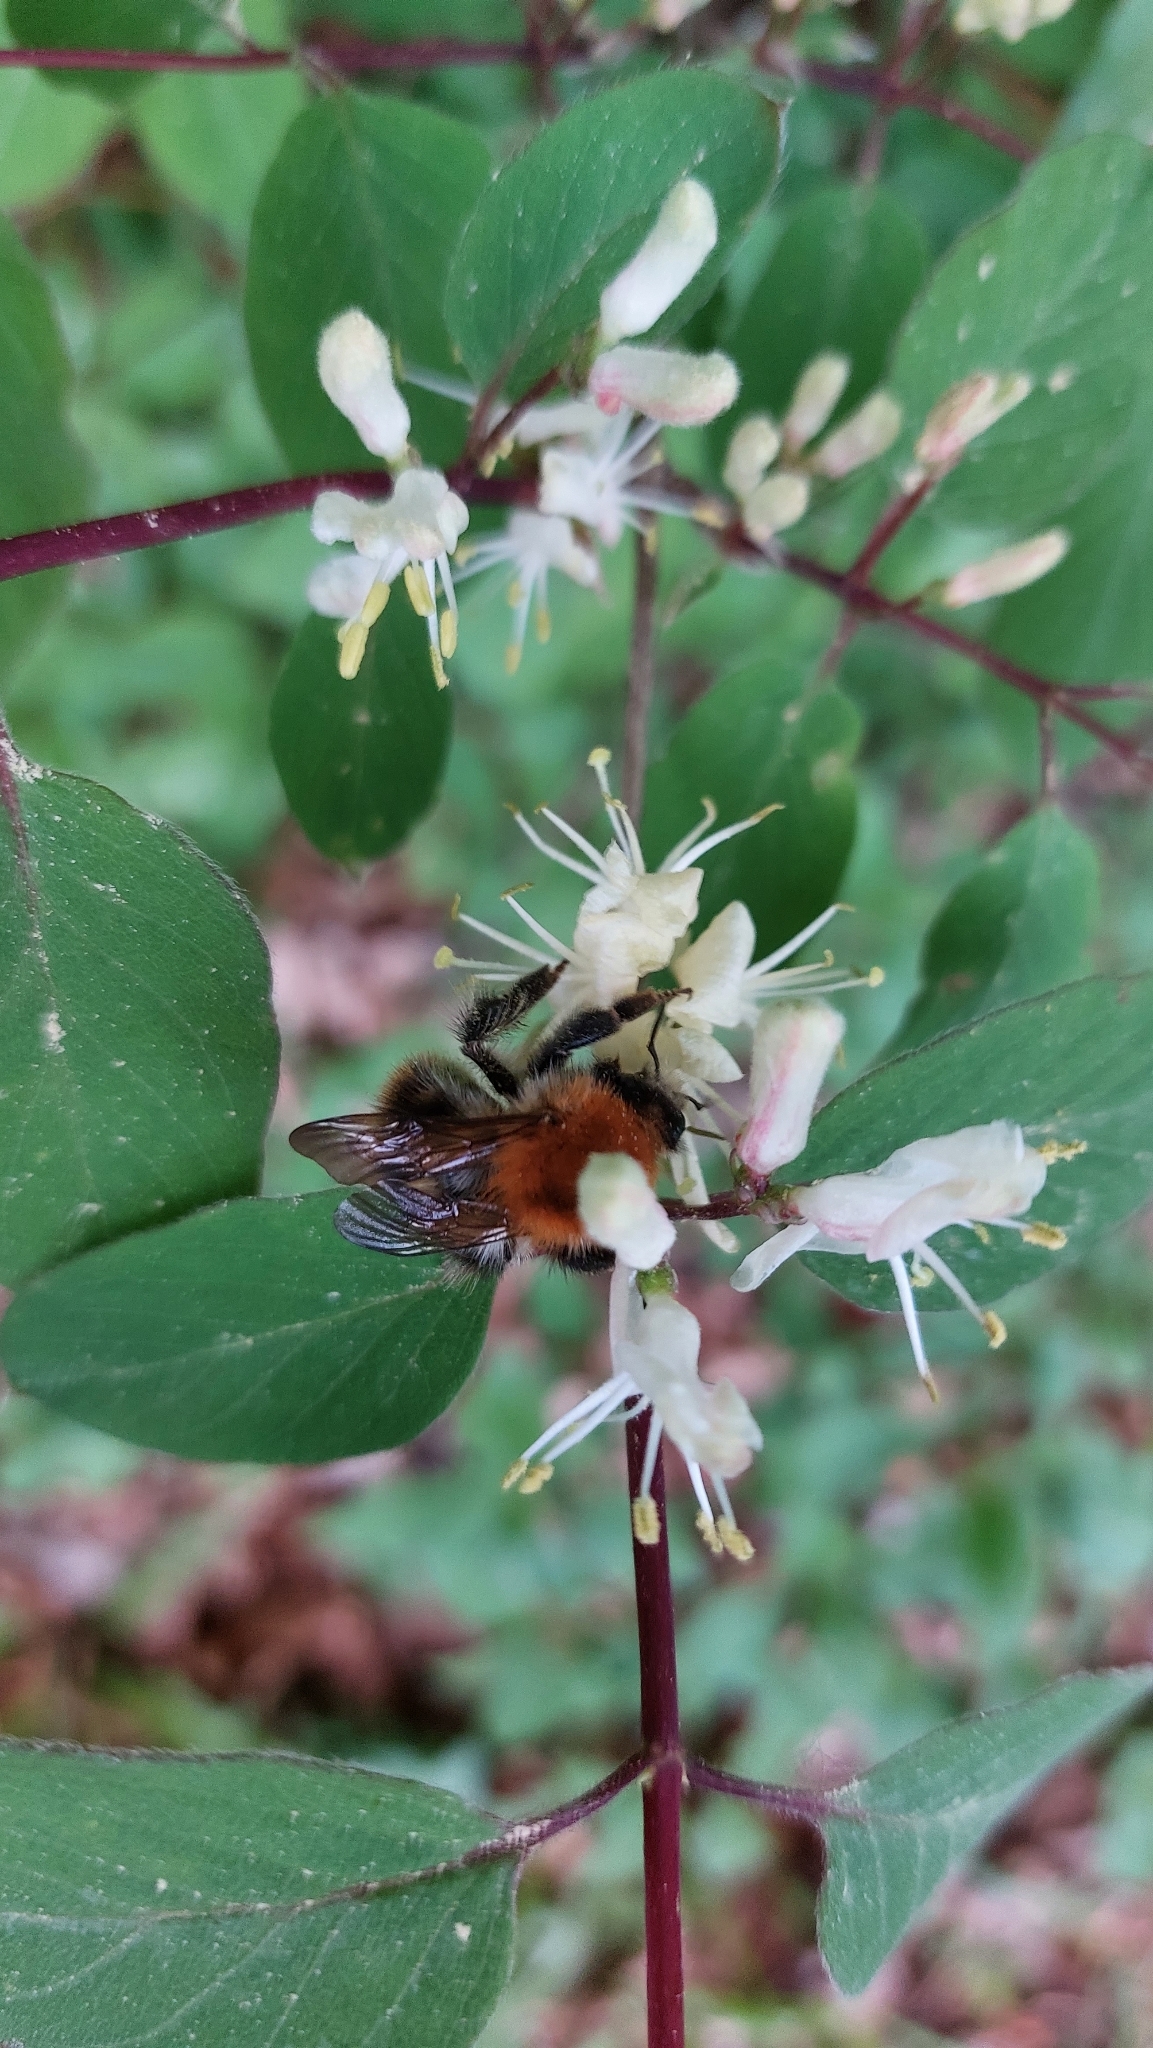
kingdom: Animalia
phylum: Arthropoda
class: Insecta
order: Hymenoptera
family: Apidae
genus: Bombus
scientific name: Bombus pascuorum
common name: Common carder bee
